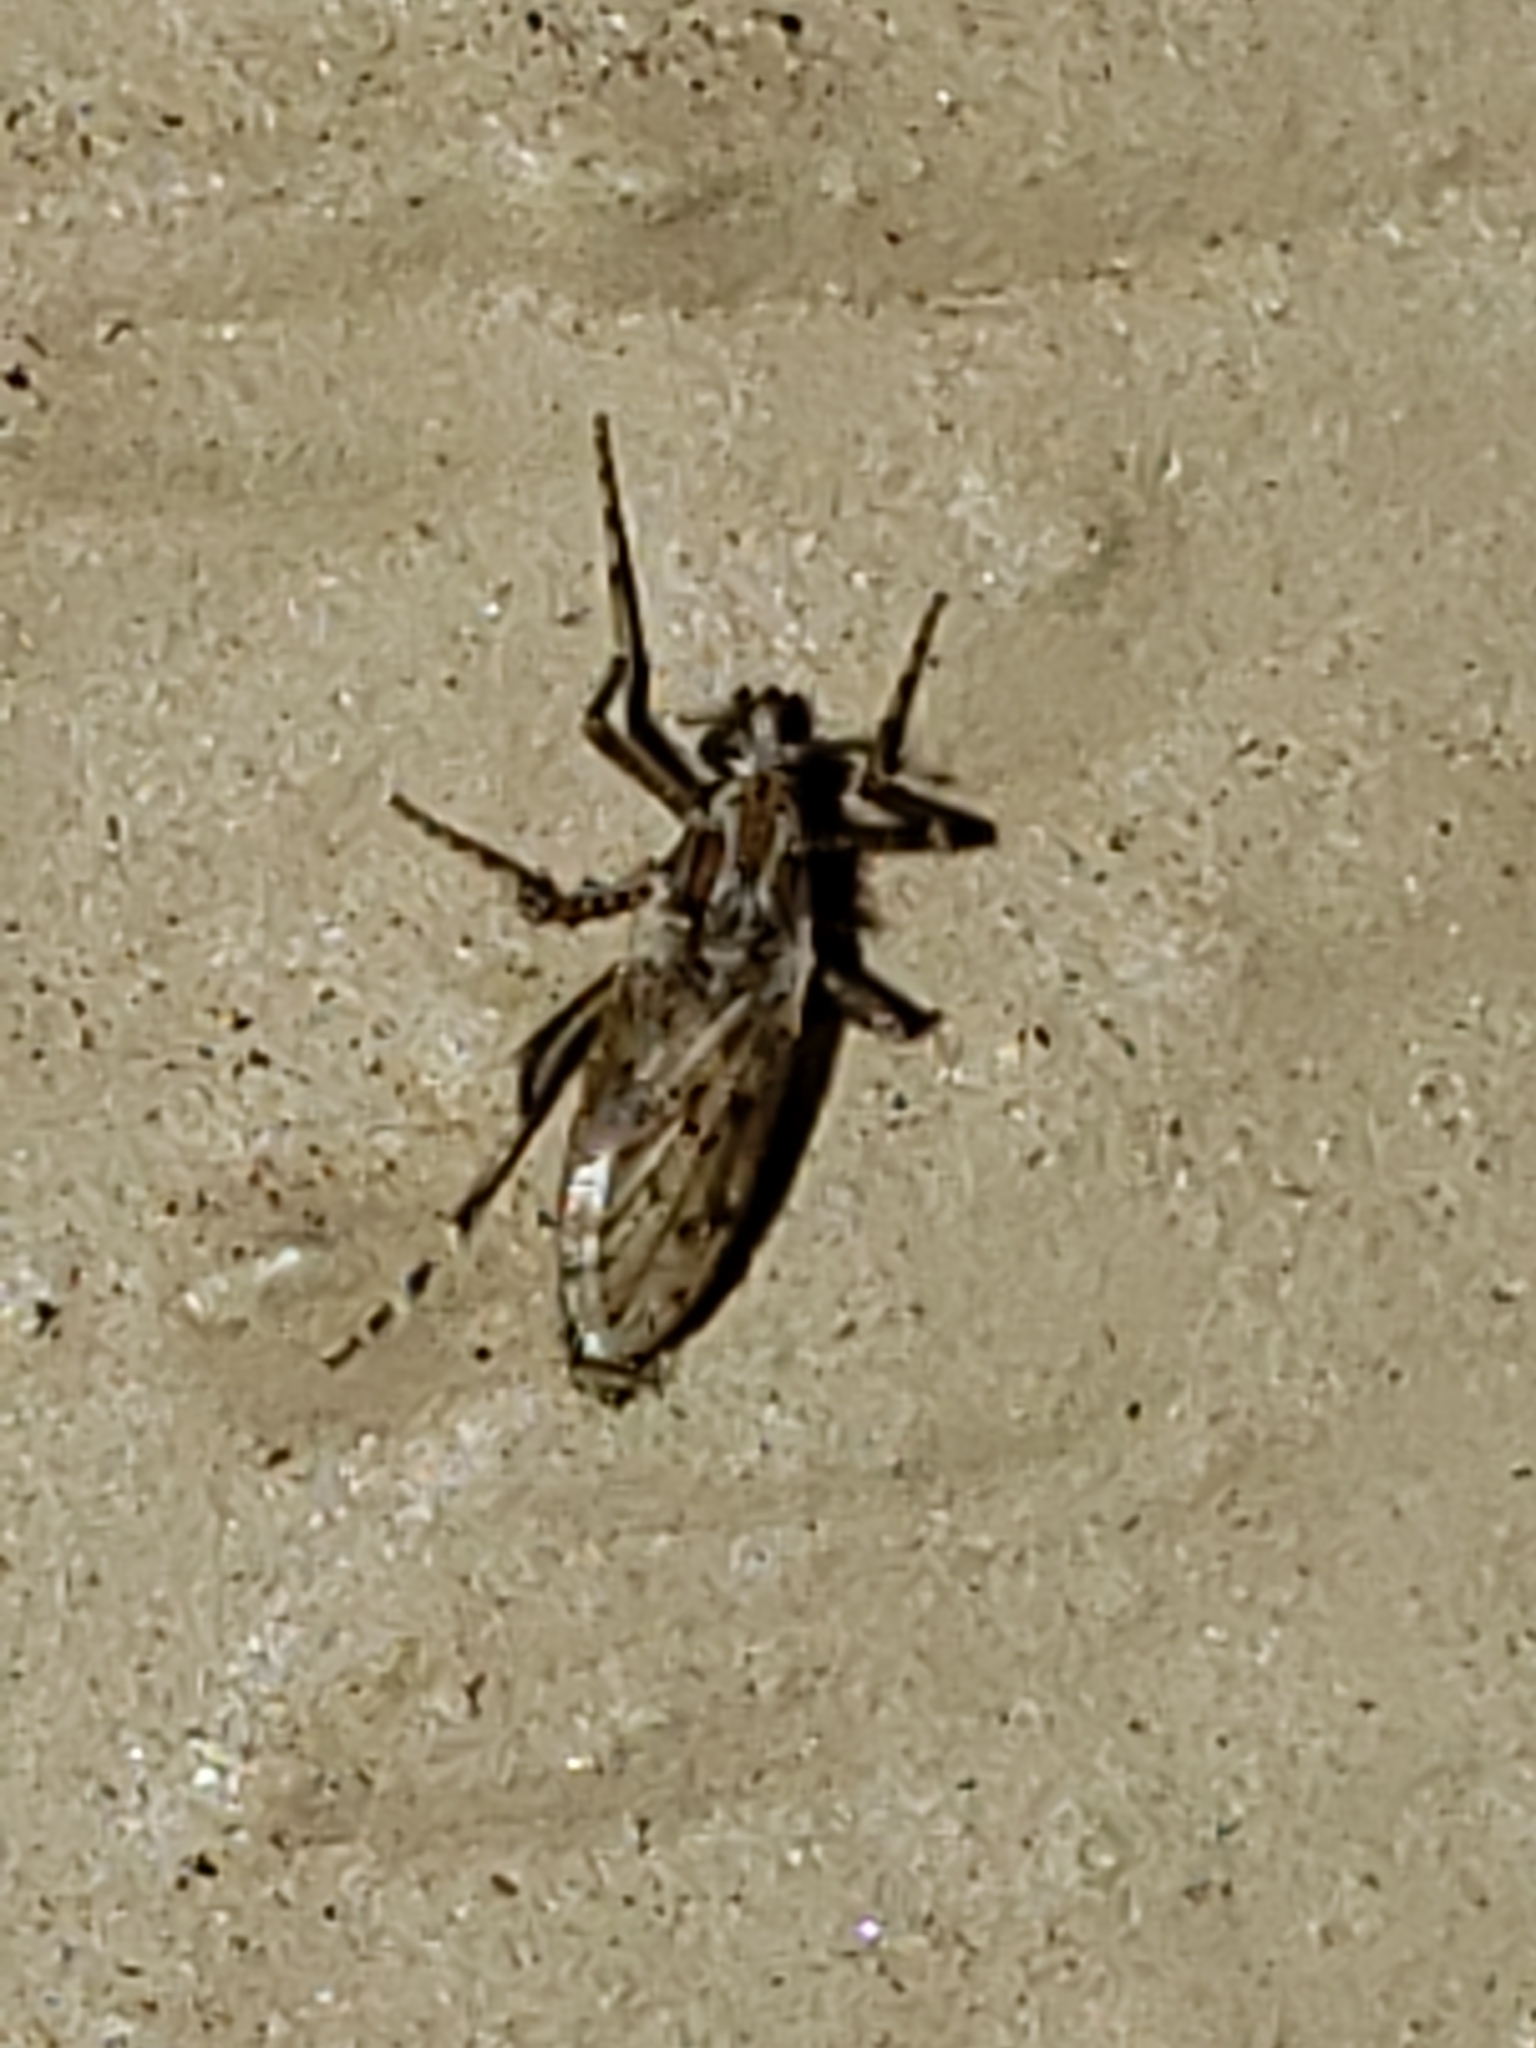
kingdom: Animalia
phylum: Arthropoda
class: Insecta
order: Diptera
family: Chaoboridae
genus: Chaoborus
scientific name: Chaoborus punctipennis
